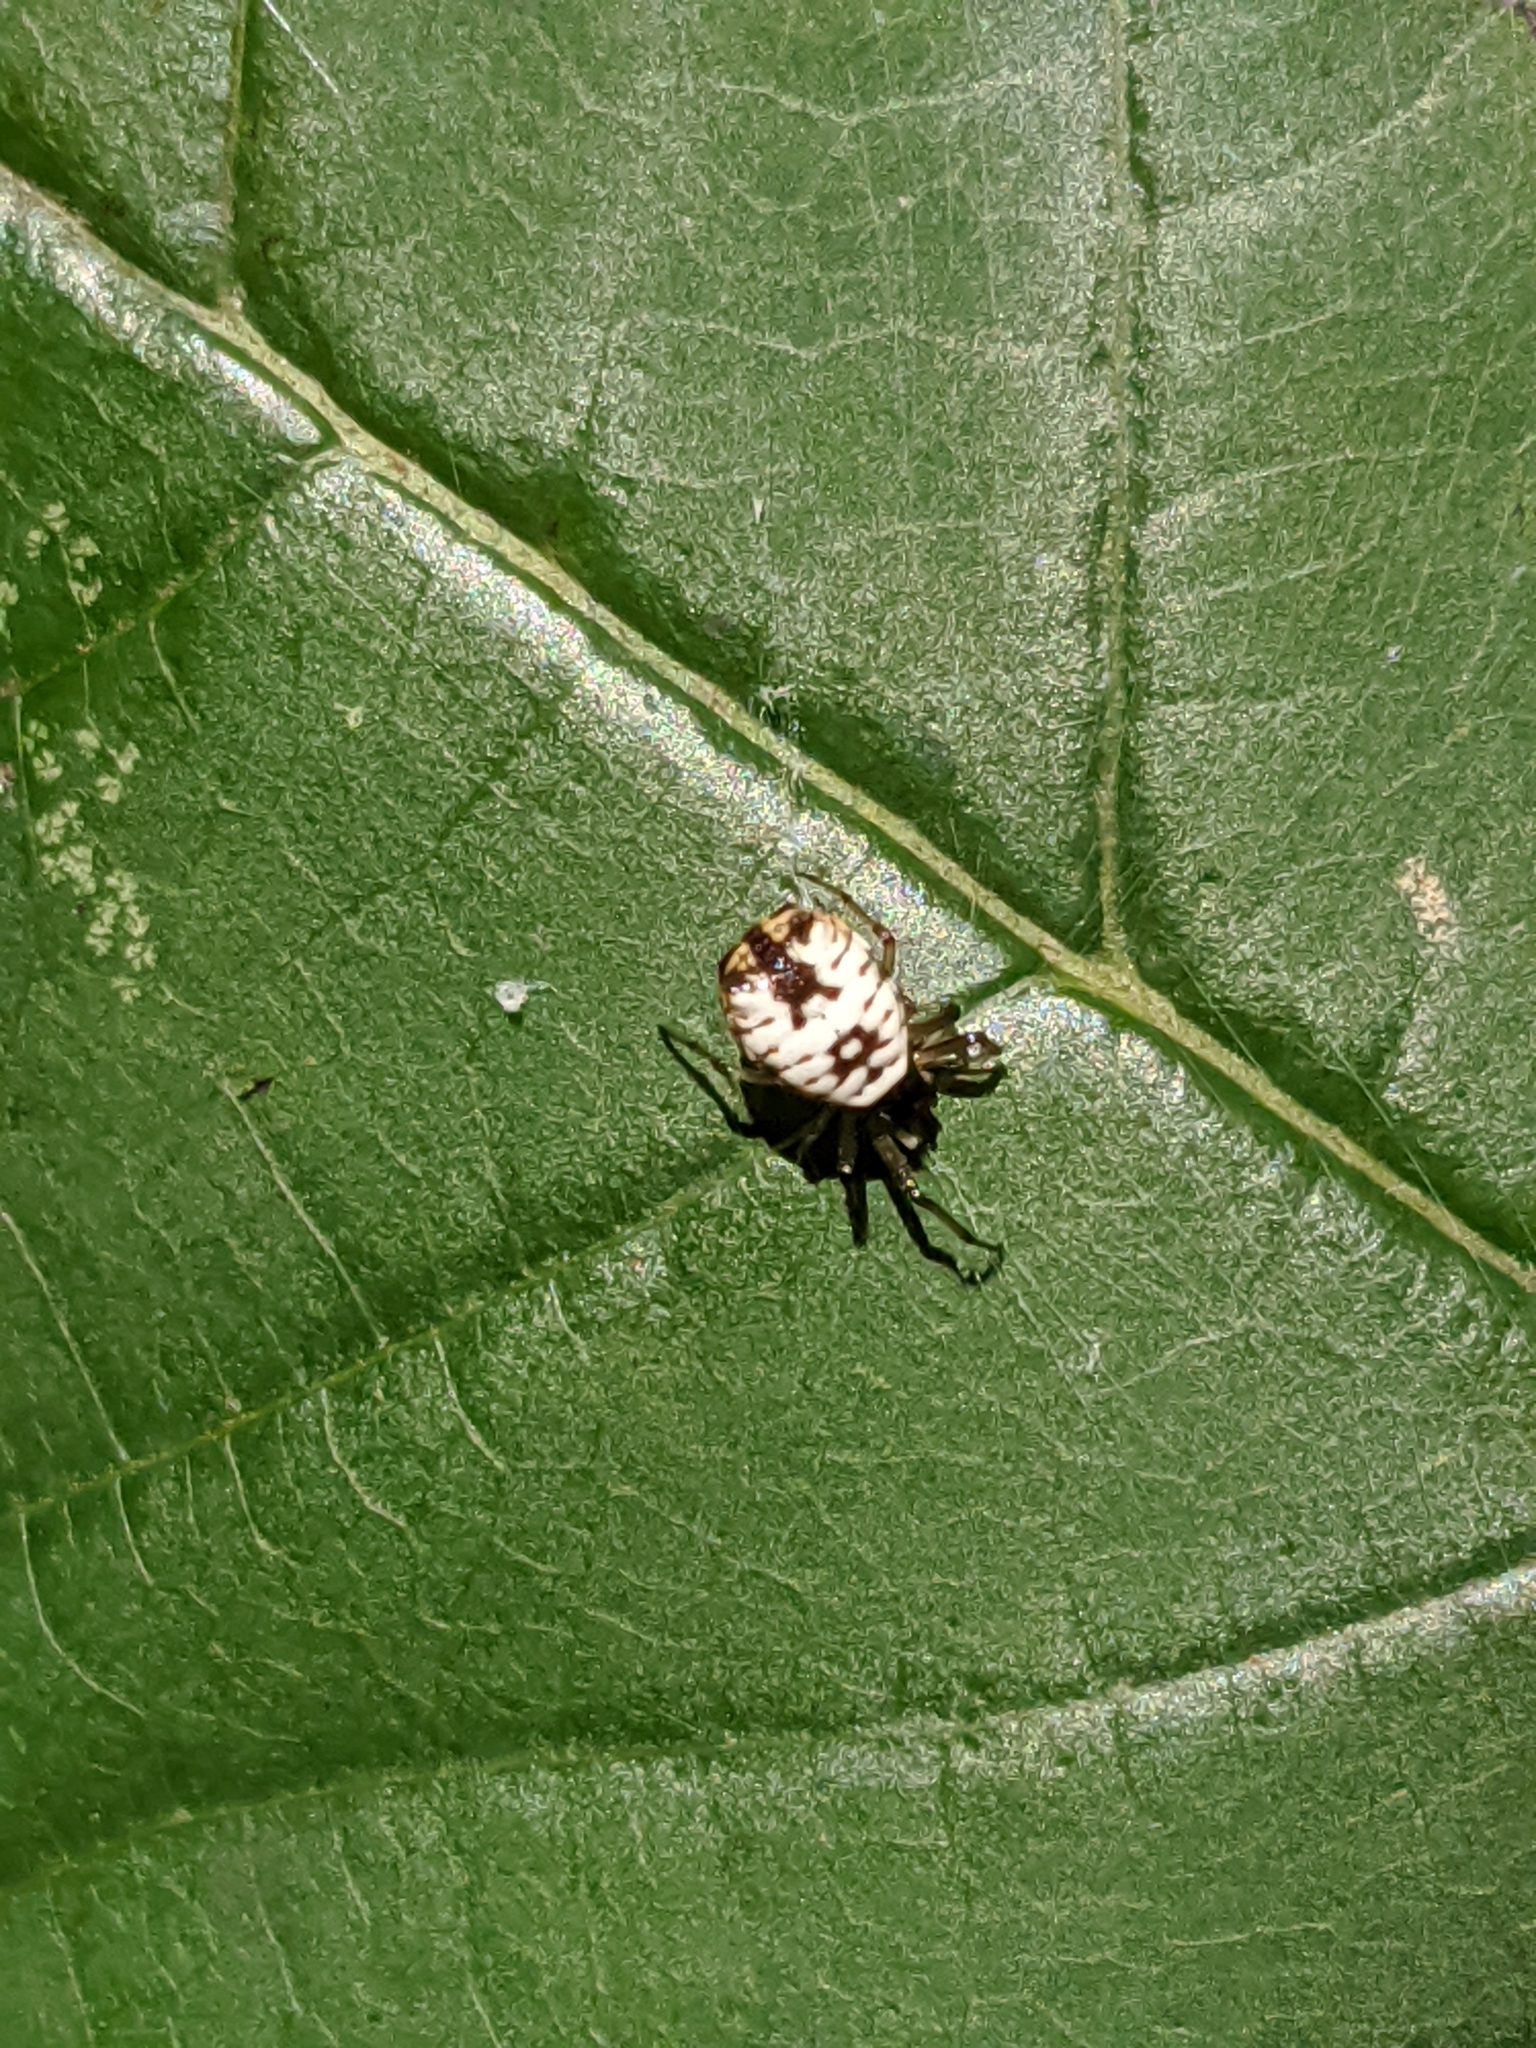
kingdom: Animalia
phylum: Arthropoda
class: Arachnida
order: Araneae
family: Araneidae
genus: Micrathena
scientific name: Micrathena mitrata
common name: Orb weavers
